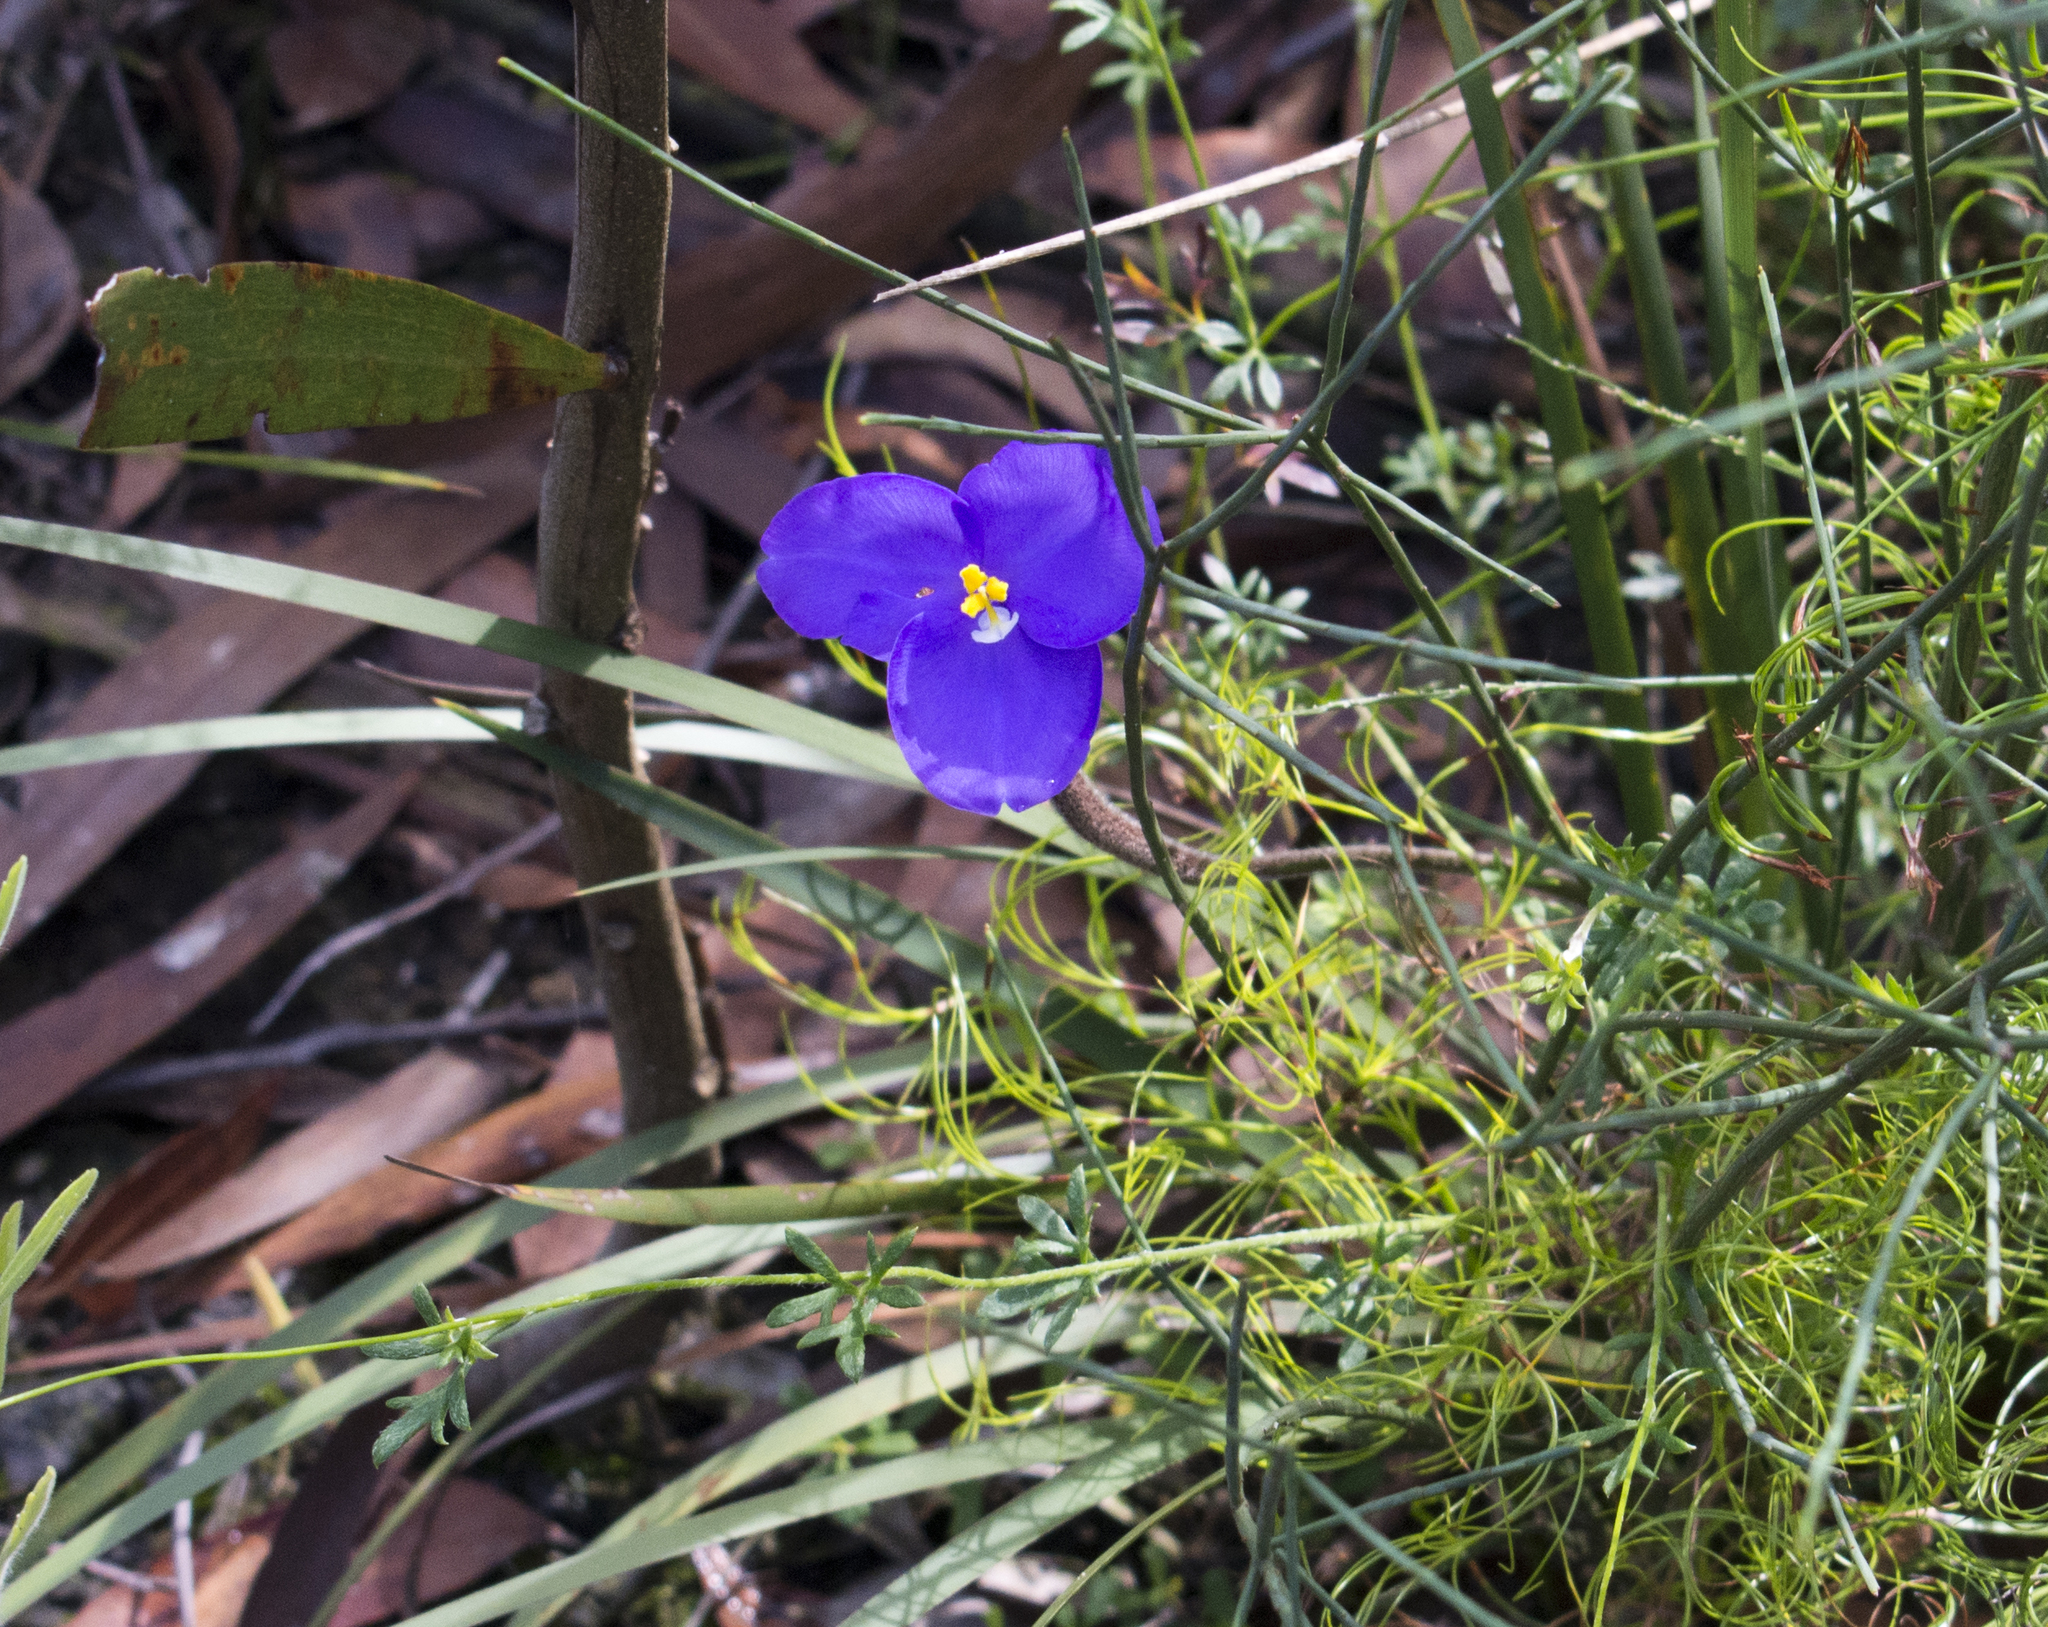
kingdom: Plantae
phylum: Tracheophyta
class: Liliopsida
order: Asparagales
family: Iridaceae
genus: Patersonia
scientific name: Patersonia sericea
